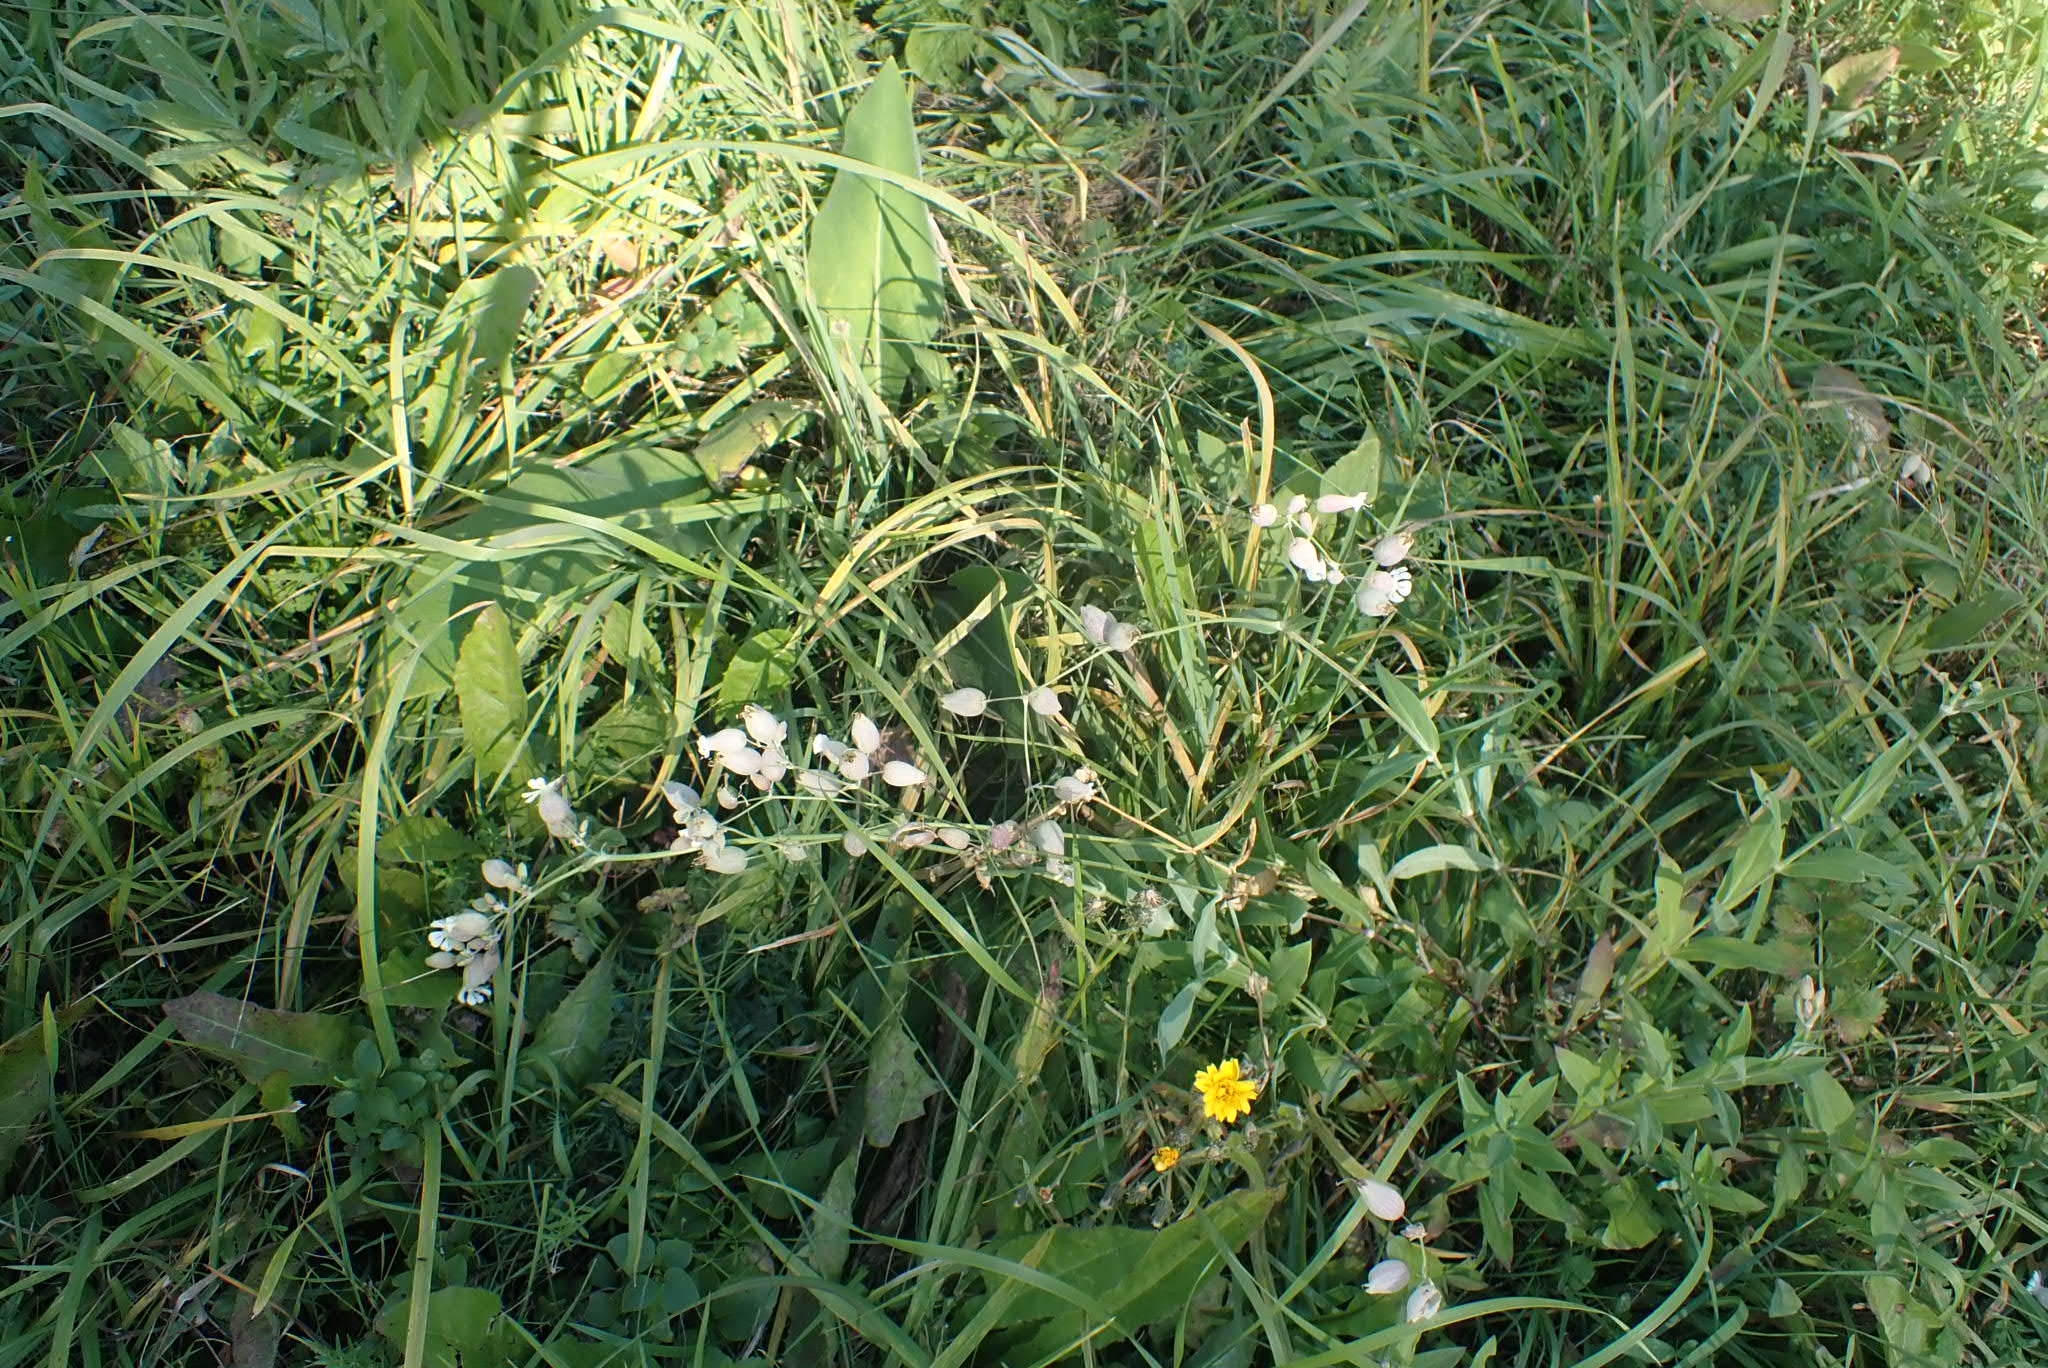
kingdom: Plantae
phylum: Tracheophyta
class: Magnoliopsida
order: Caryophyllales
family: Caryophyllaceae
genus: Silene
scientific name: Silene vulgaris
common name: Bladder campion
